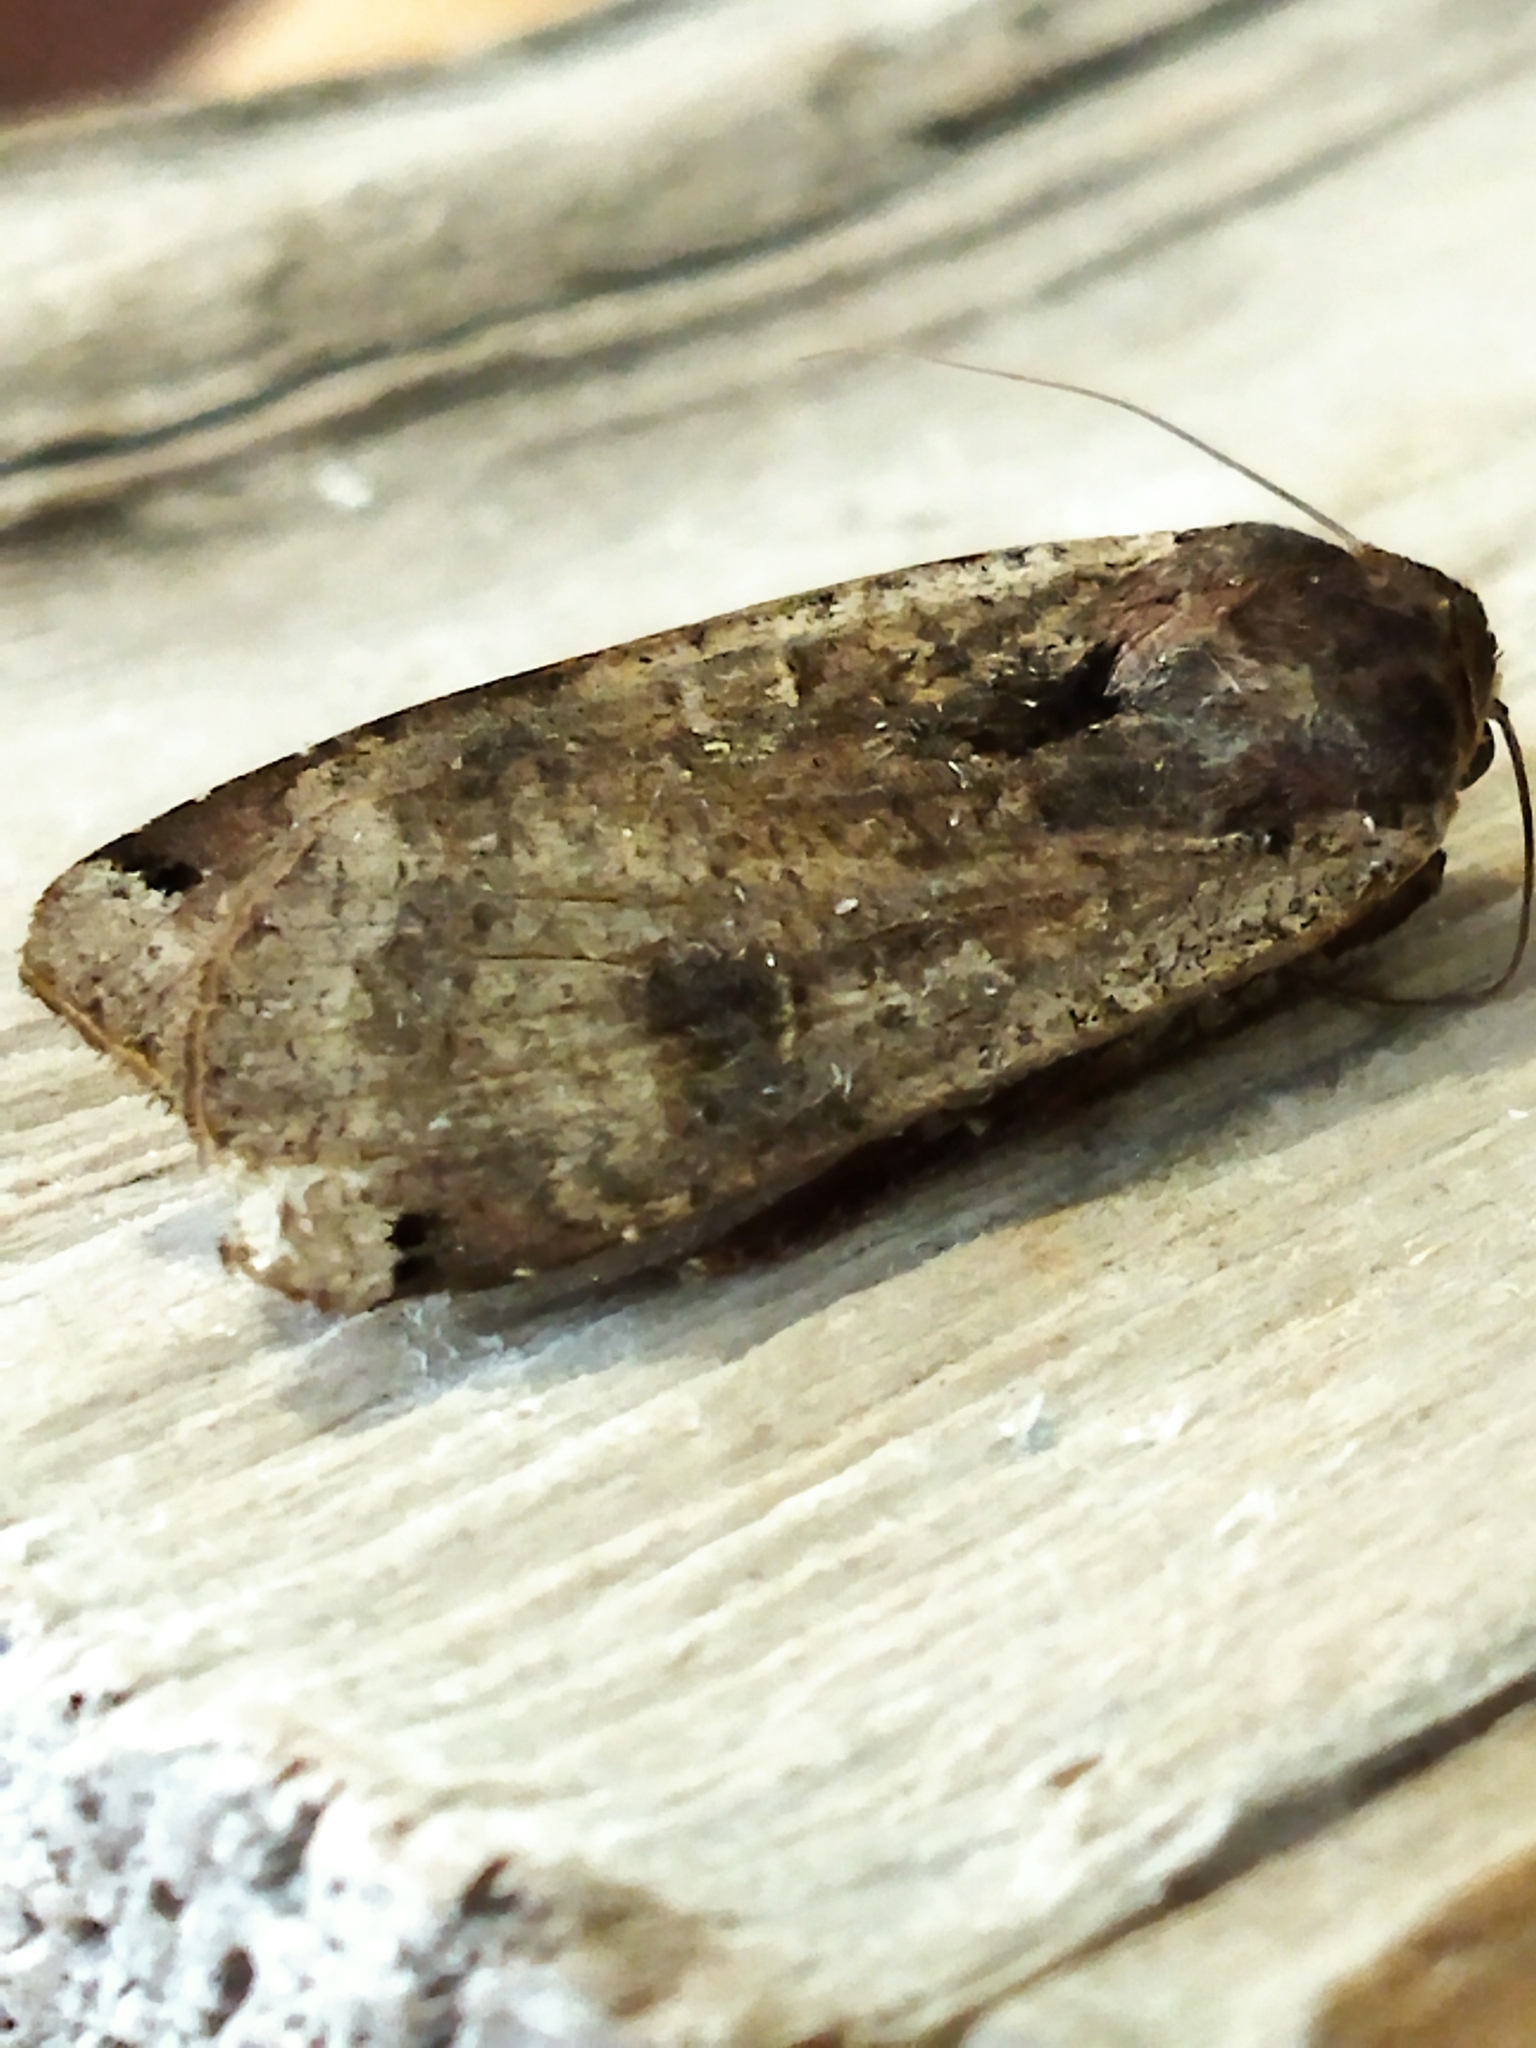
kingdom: Animalia
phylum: Arthropoda
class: Insecta
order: Lepidoptera
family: Noctuidae
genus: Noctua
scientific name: Noctua pronuba
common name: Large yellow underwing
